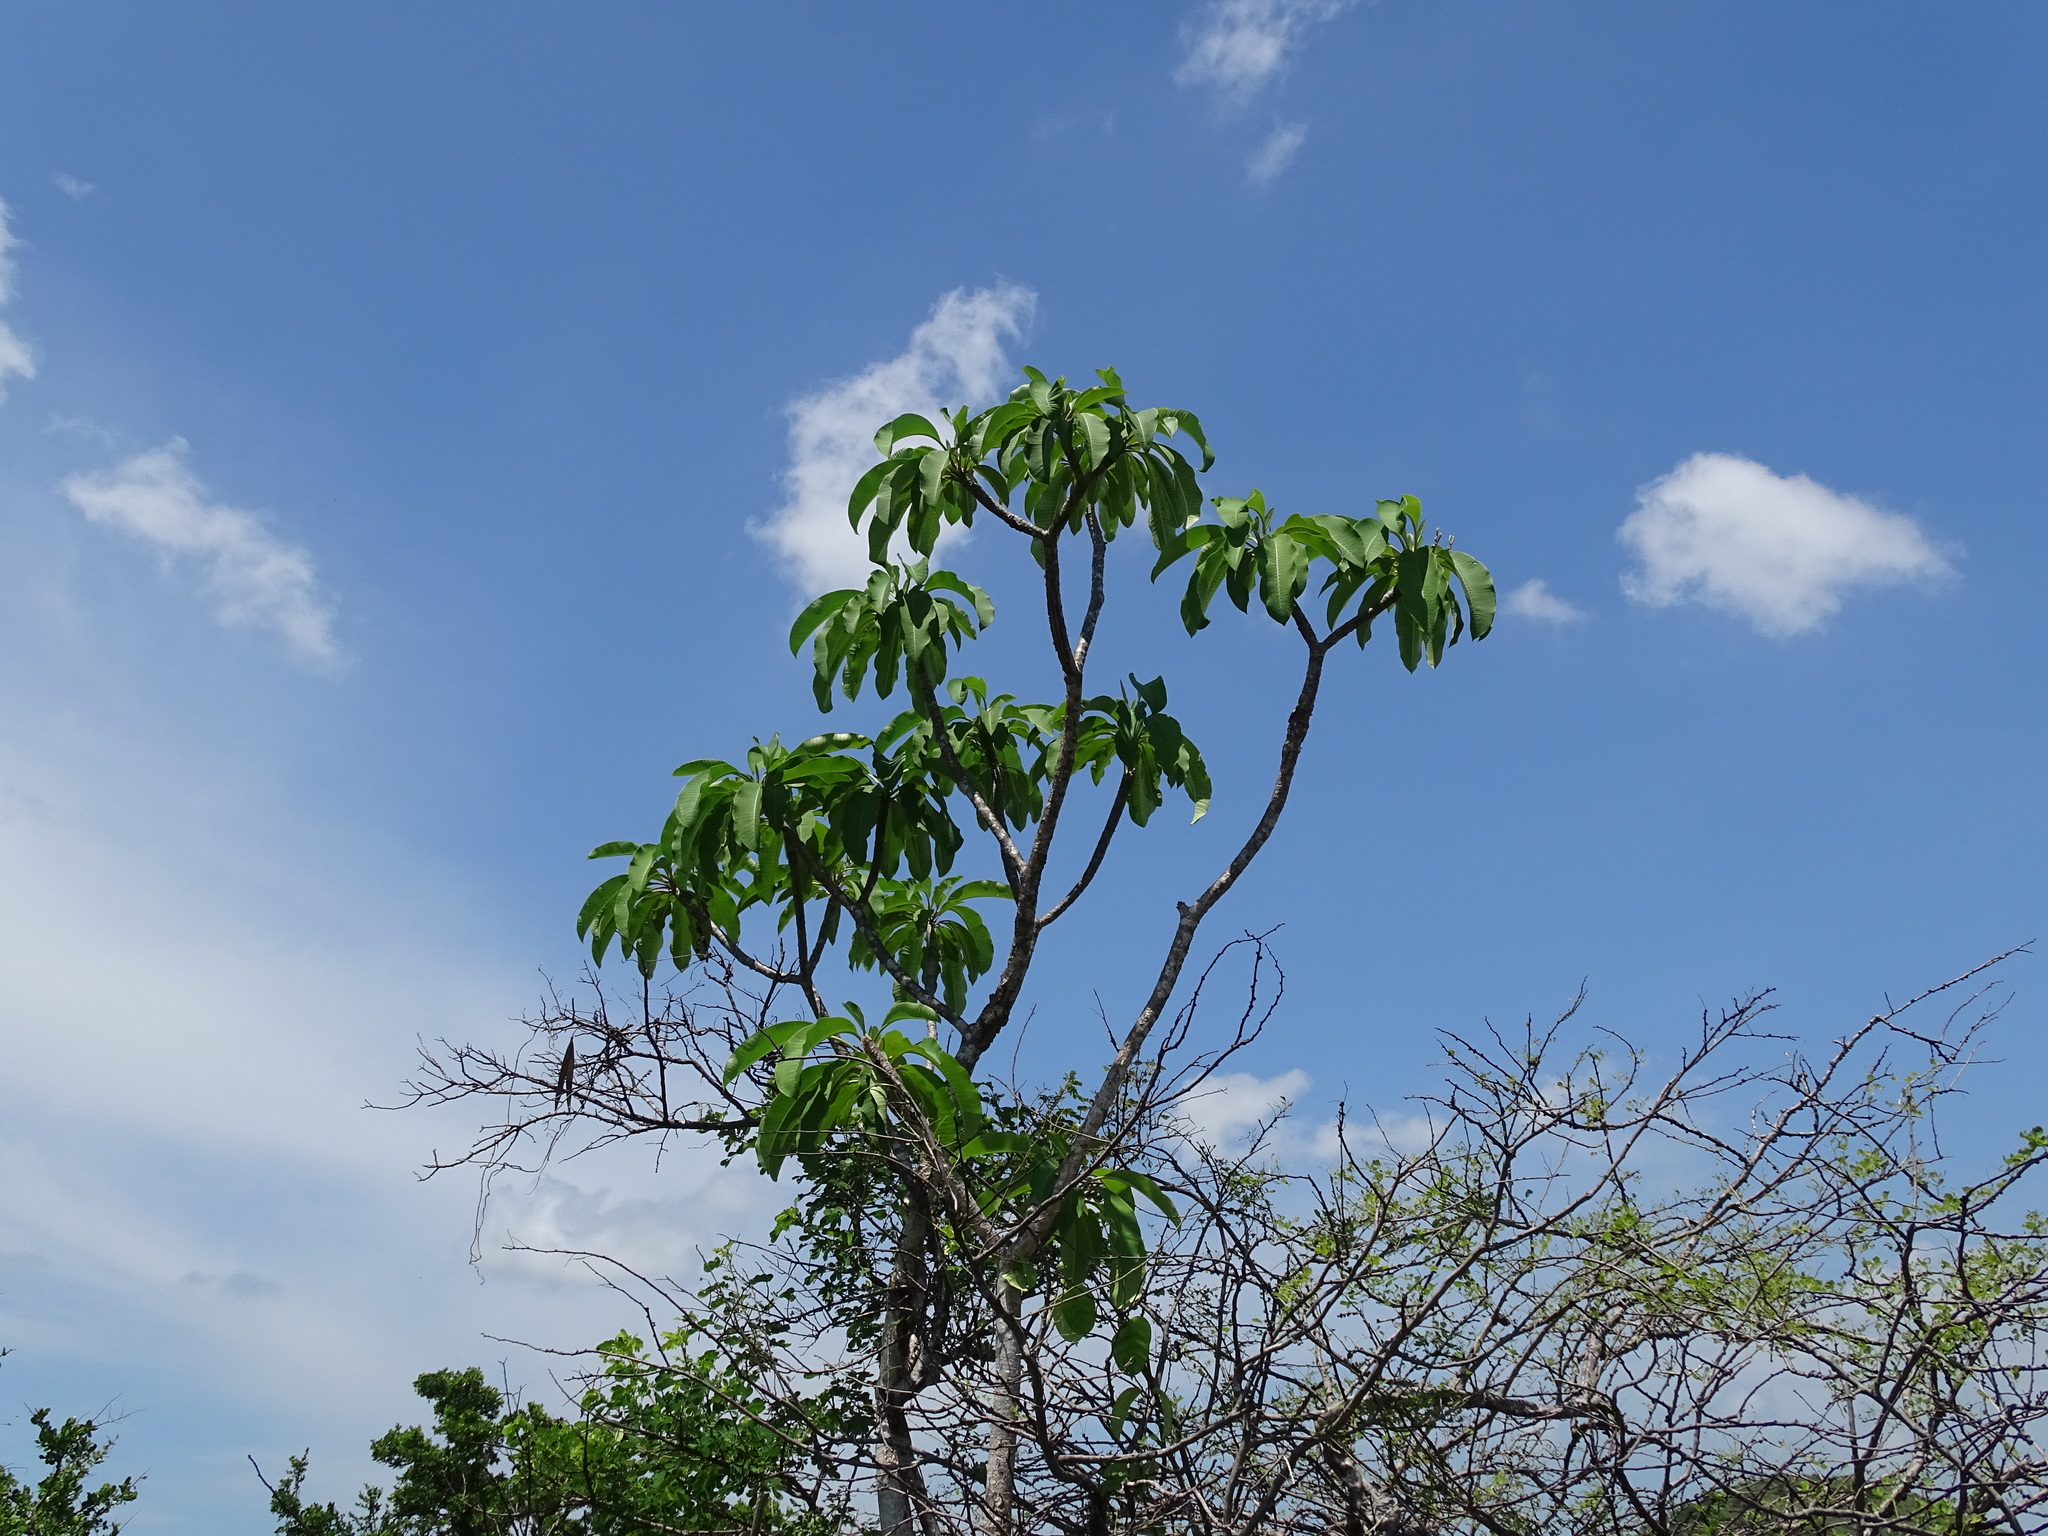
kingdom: Plantae
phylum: Tracheophyta
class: Magnoliopsida
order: Gentianales
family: Apocynaceae
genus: Plumeria
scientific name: Plumeria rubra
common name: Pagoda-tree
